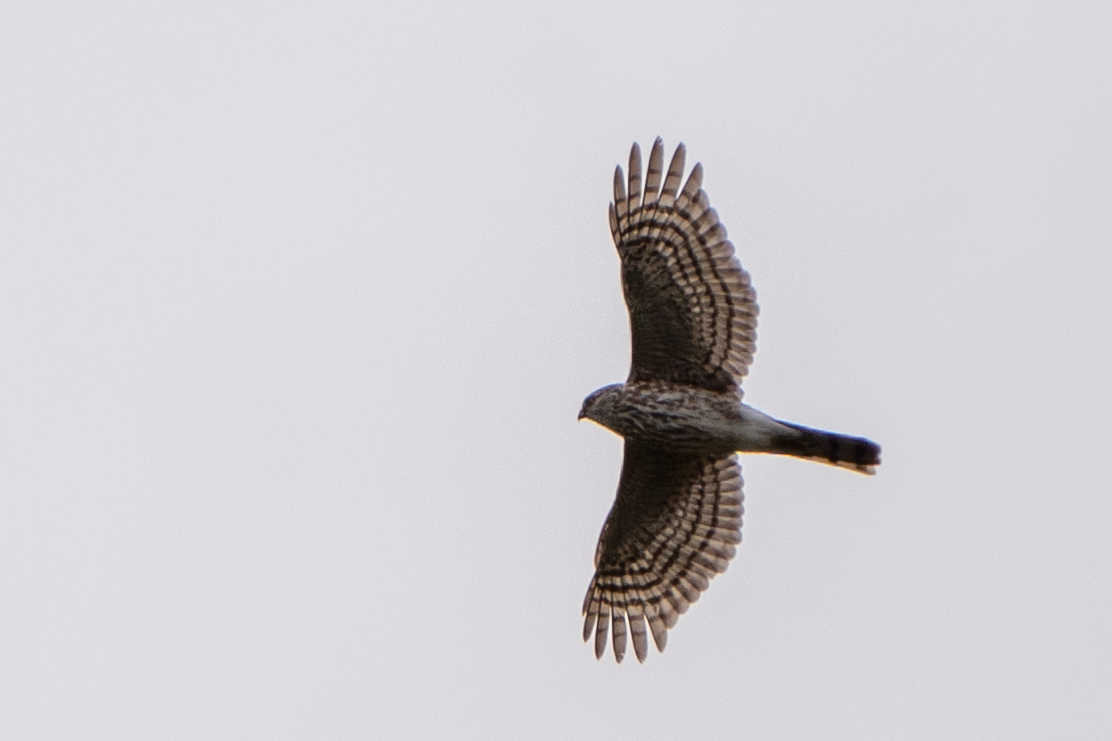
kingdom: Animalia
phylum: Chordata
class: Aves
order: Accipitriformes
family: Accipitridae
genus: Accipiter
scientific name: Accipiter striatus
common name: Sharp-shinned hawk
